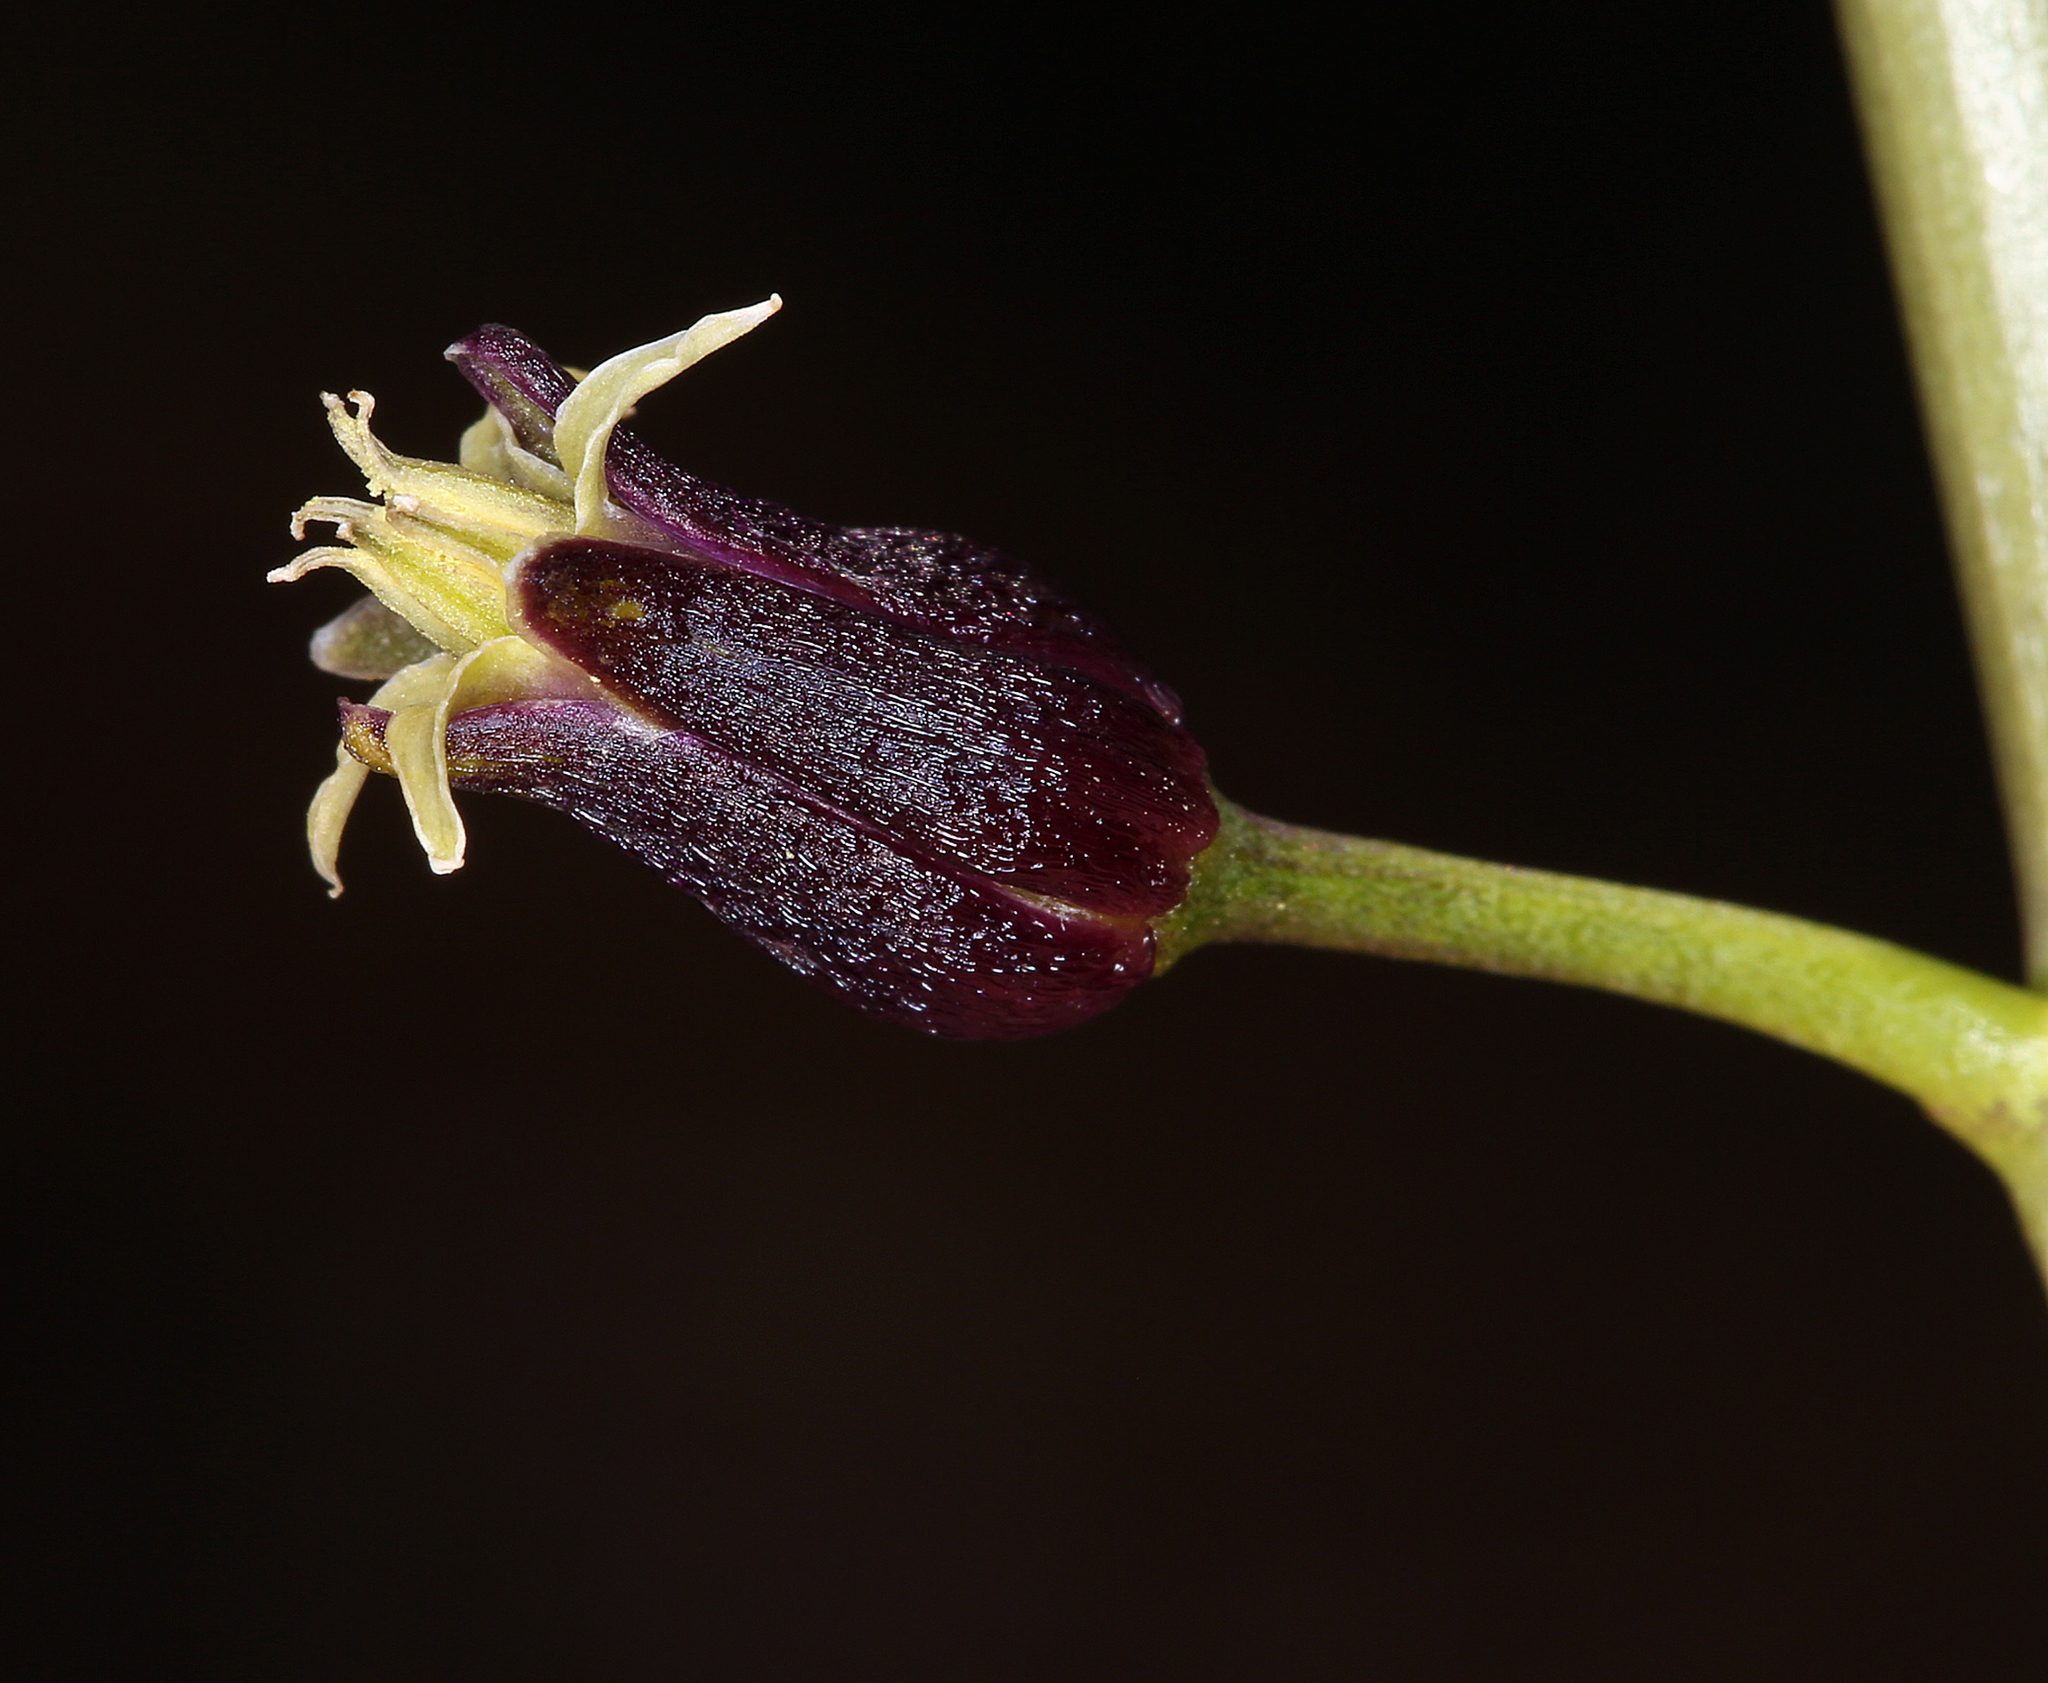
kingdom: Plantae
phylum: Tracheophyta
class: Magnoliopsida
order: Brassicales
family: Brassicaceae
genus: Streptanthus
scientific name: Streptanthus pilosus
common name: Chocolate drops
